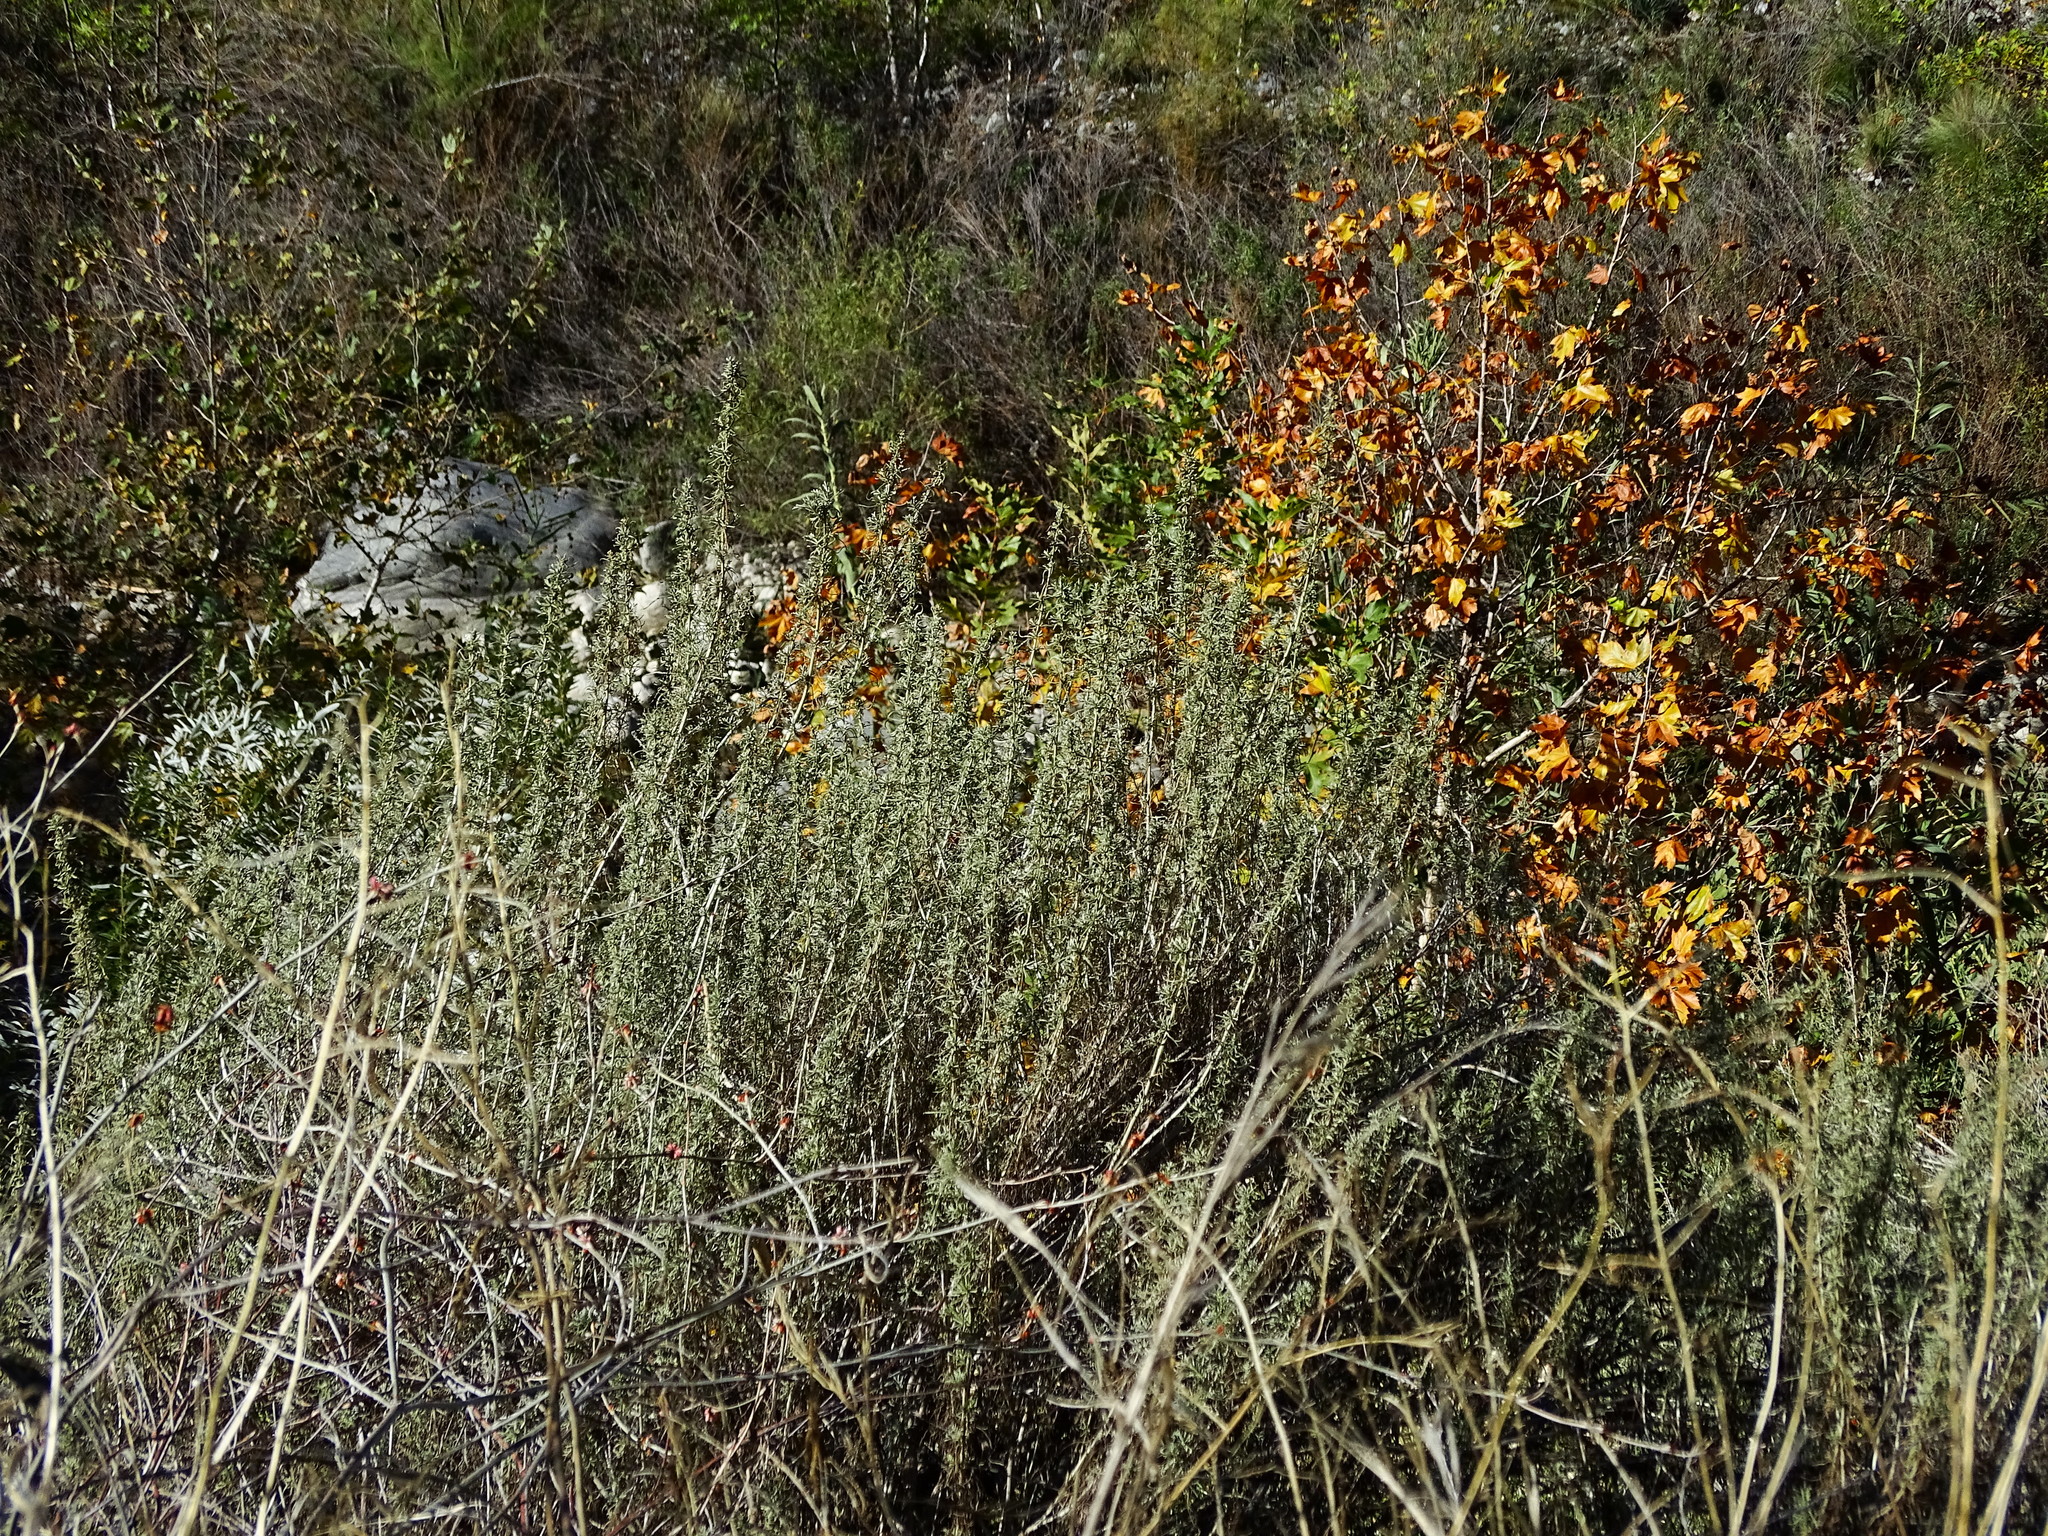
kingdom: Plantae
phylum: Tracheophyta
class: Magnoliopsida
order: Asterales
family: Asteraceae
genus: Artemisia
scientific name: Artemisia californica
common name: California sagebrush
